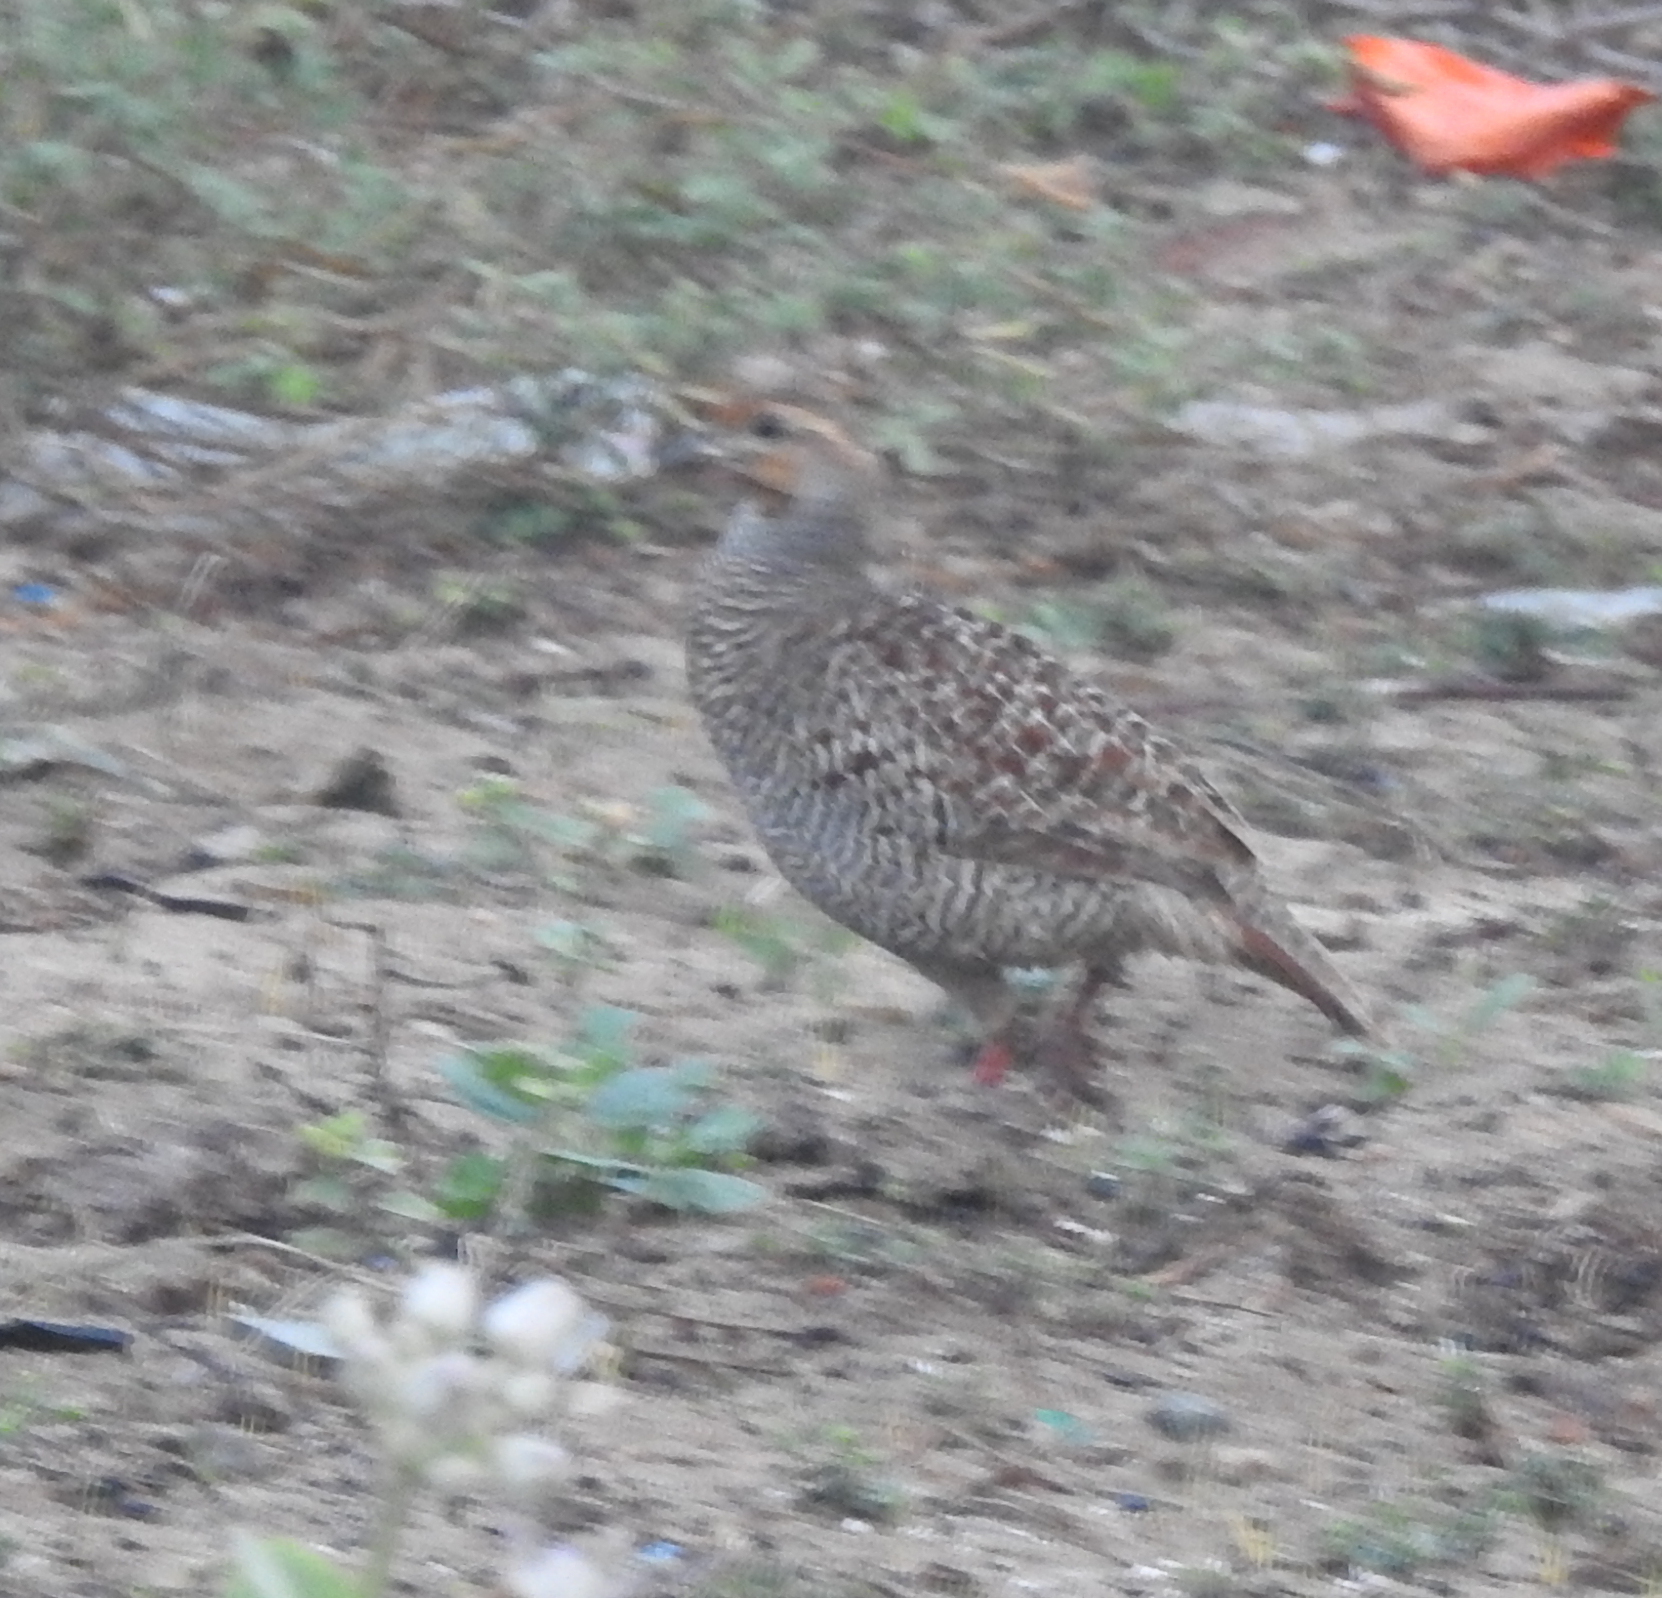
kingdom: Animalia
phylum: Chordata
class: Aves
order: Galliformes
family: Phasianidae
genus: Ortygornis
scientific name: Ortygornis pondicerianus
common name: Grey francolin
